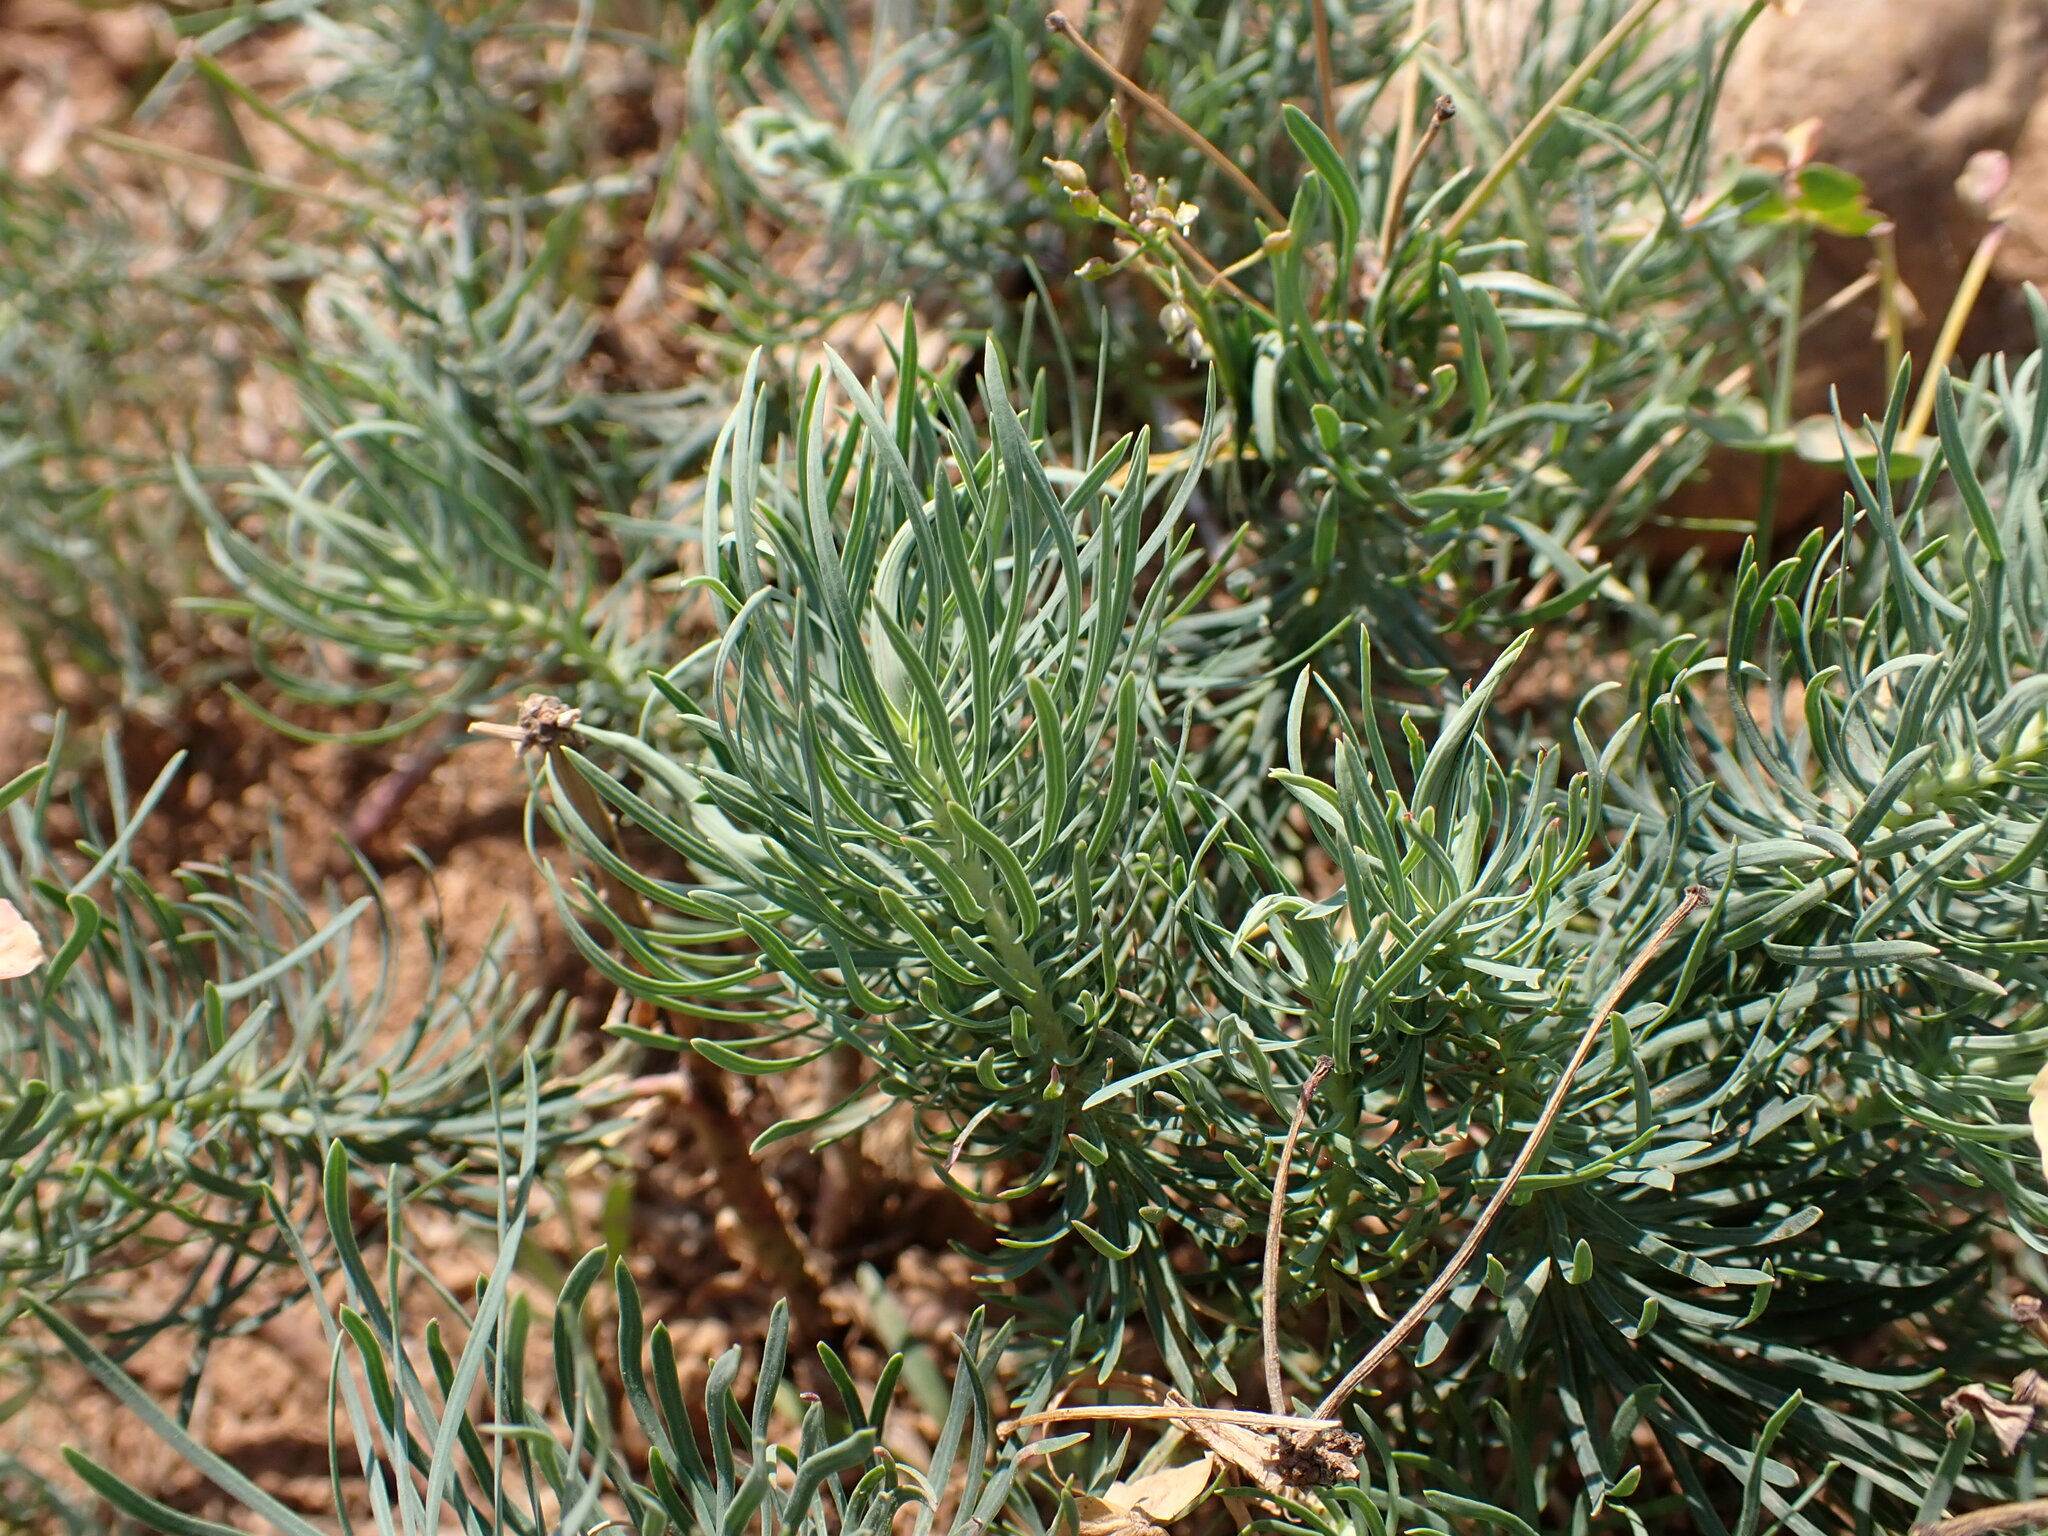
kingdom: Plantae
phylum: Tracheophyta
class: Magnoliopsida
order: Malpighiales
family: Euphorbiaceae
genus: Euphorbia
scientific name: Euphorbia cyparissias
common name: Cypress spurge
